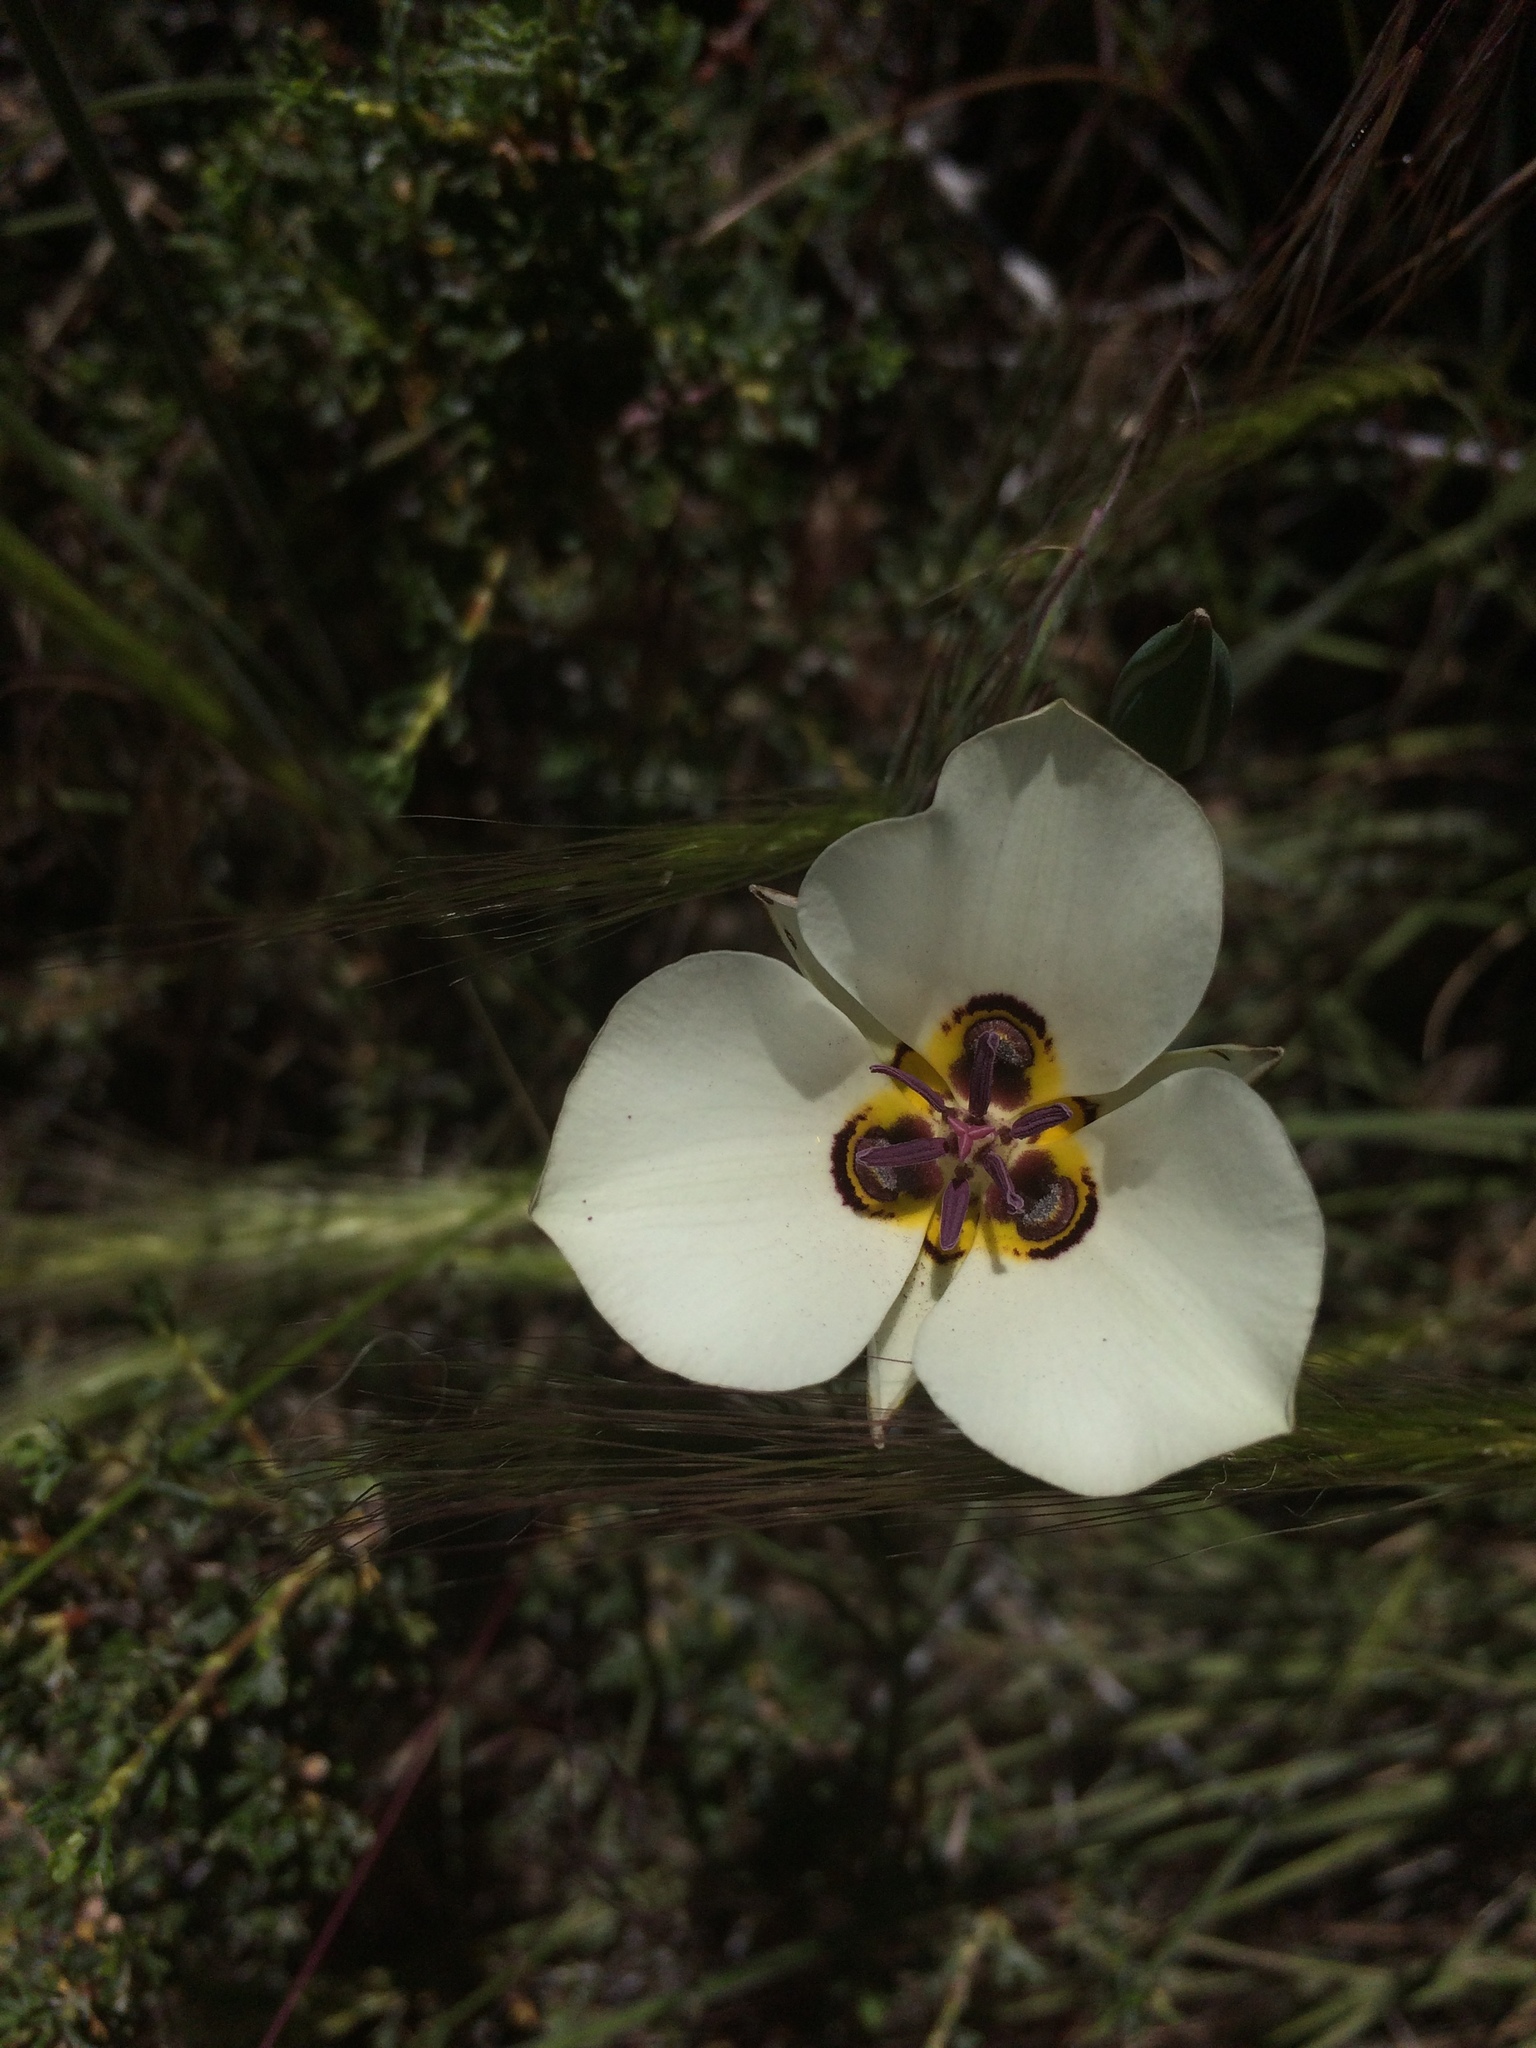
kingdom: Plantae
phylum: Tracheophyta
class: Liliopsida
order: Liliales
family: Liliaceae
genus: Calochortus
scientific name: Calochortus bruneaunis
